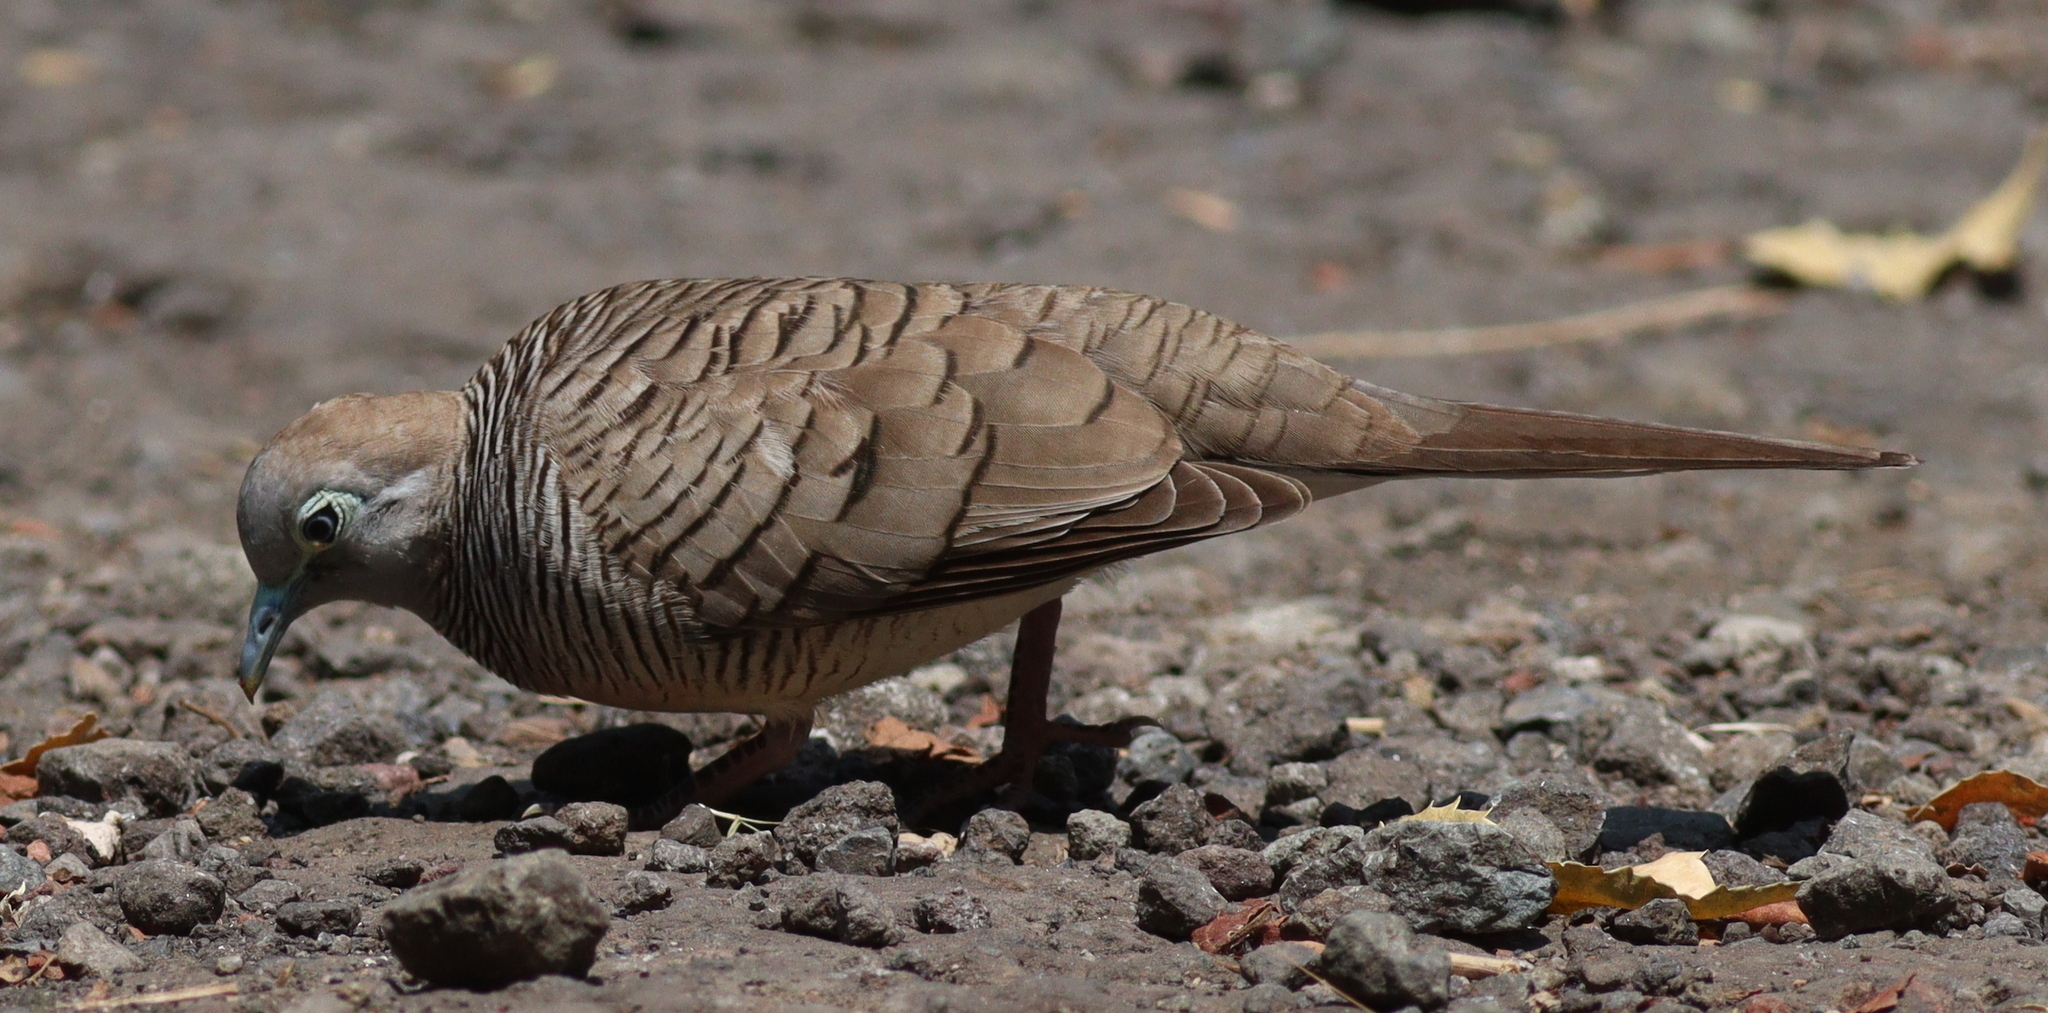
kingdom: Animalia
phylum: Chordata
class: Aves
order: Columbiformes
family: Columbidae
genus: Geopelia
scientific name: Geopelia striata
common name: Zebra dove
